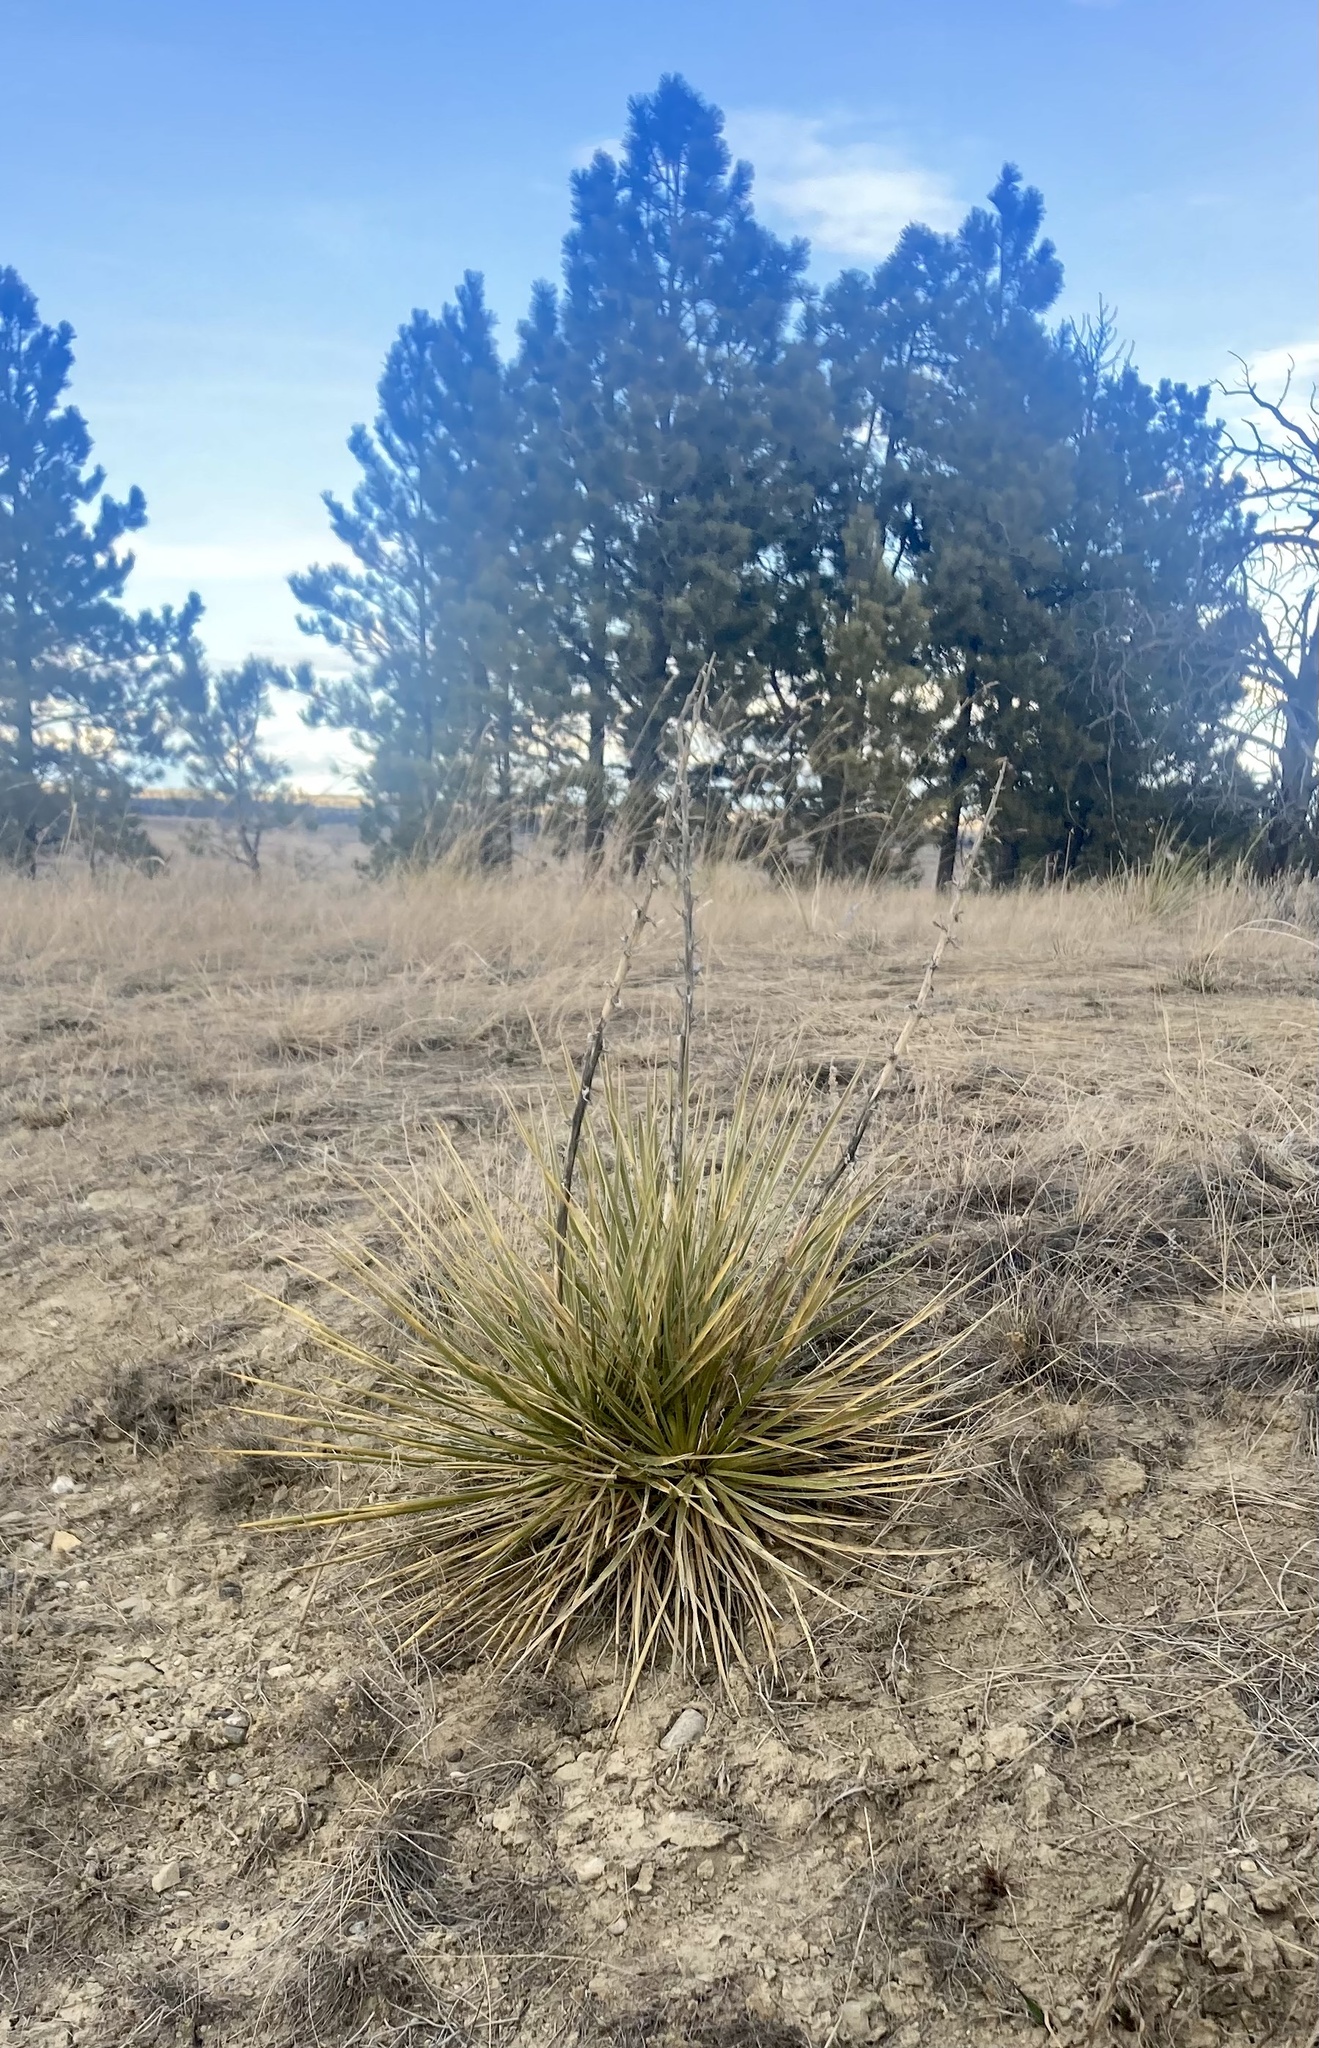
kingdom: Plantae
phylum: Tracheophyta
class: Liliopsida
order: Asparagales
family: Asparagaceae
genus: Yucca
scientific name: Yucca glauca
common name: Great plains yucca
